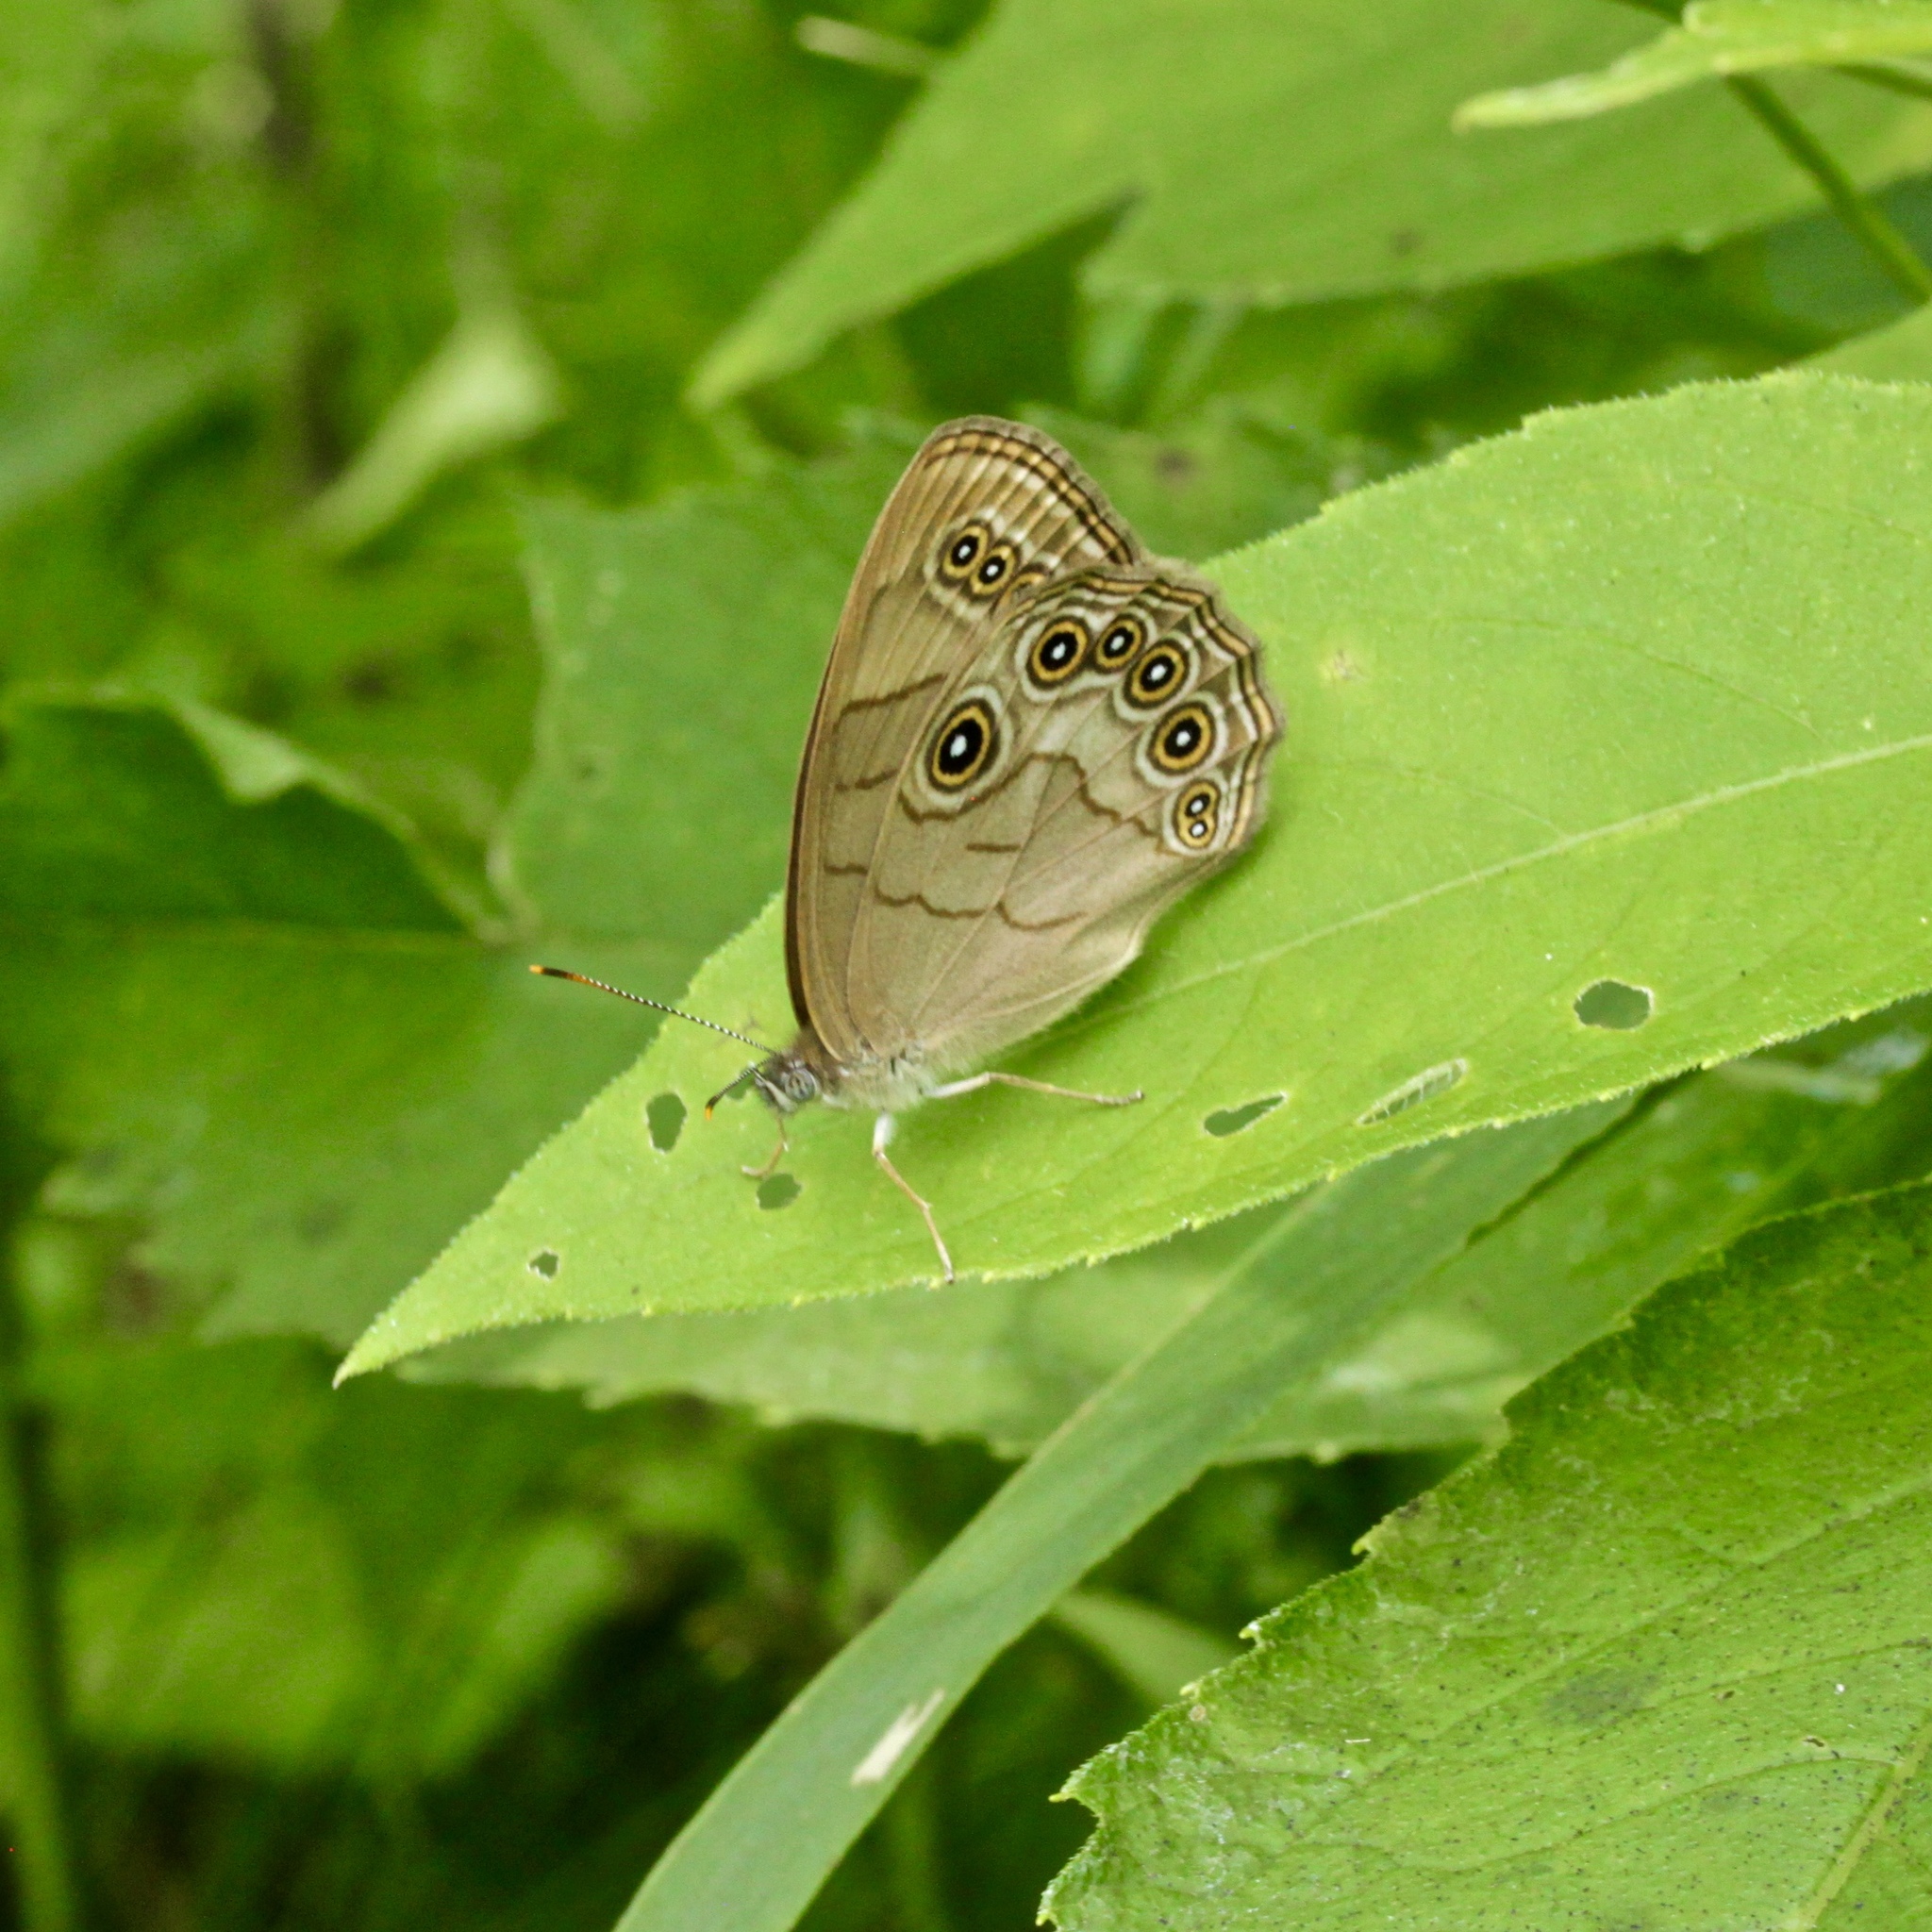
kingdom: Animalia
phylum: Arthropoda
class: Insecta
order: Lepidoptera
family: Nymphalidae
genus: Lethe
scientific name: Lethe eurydice
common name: Eyed brown
